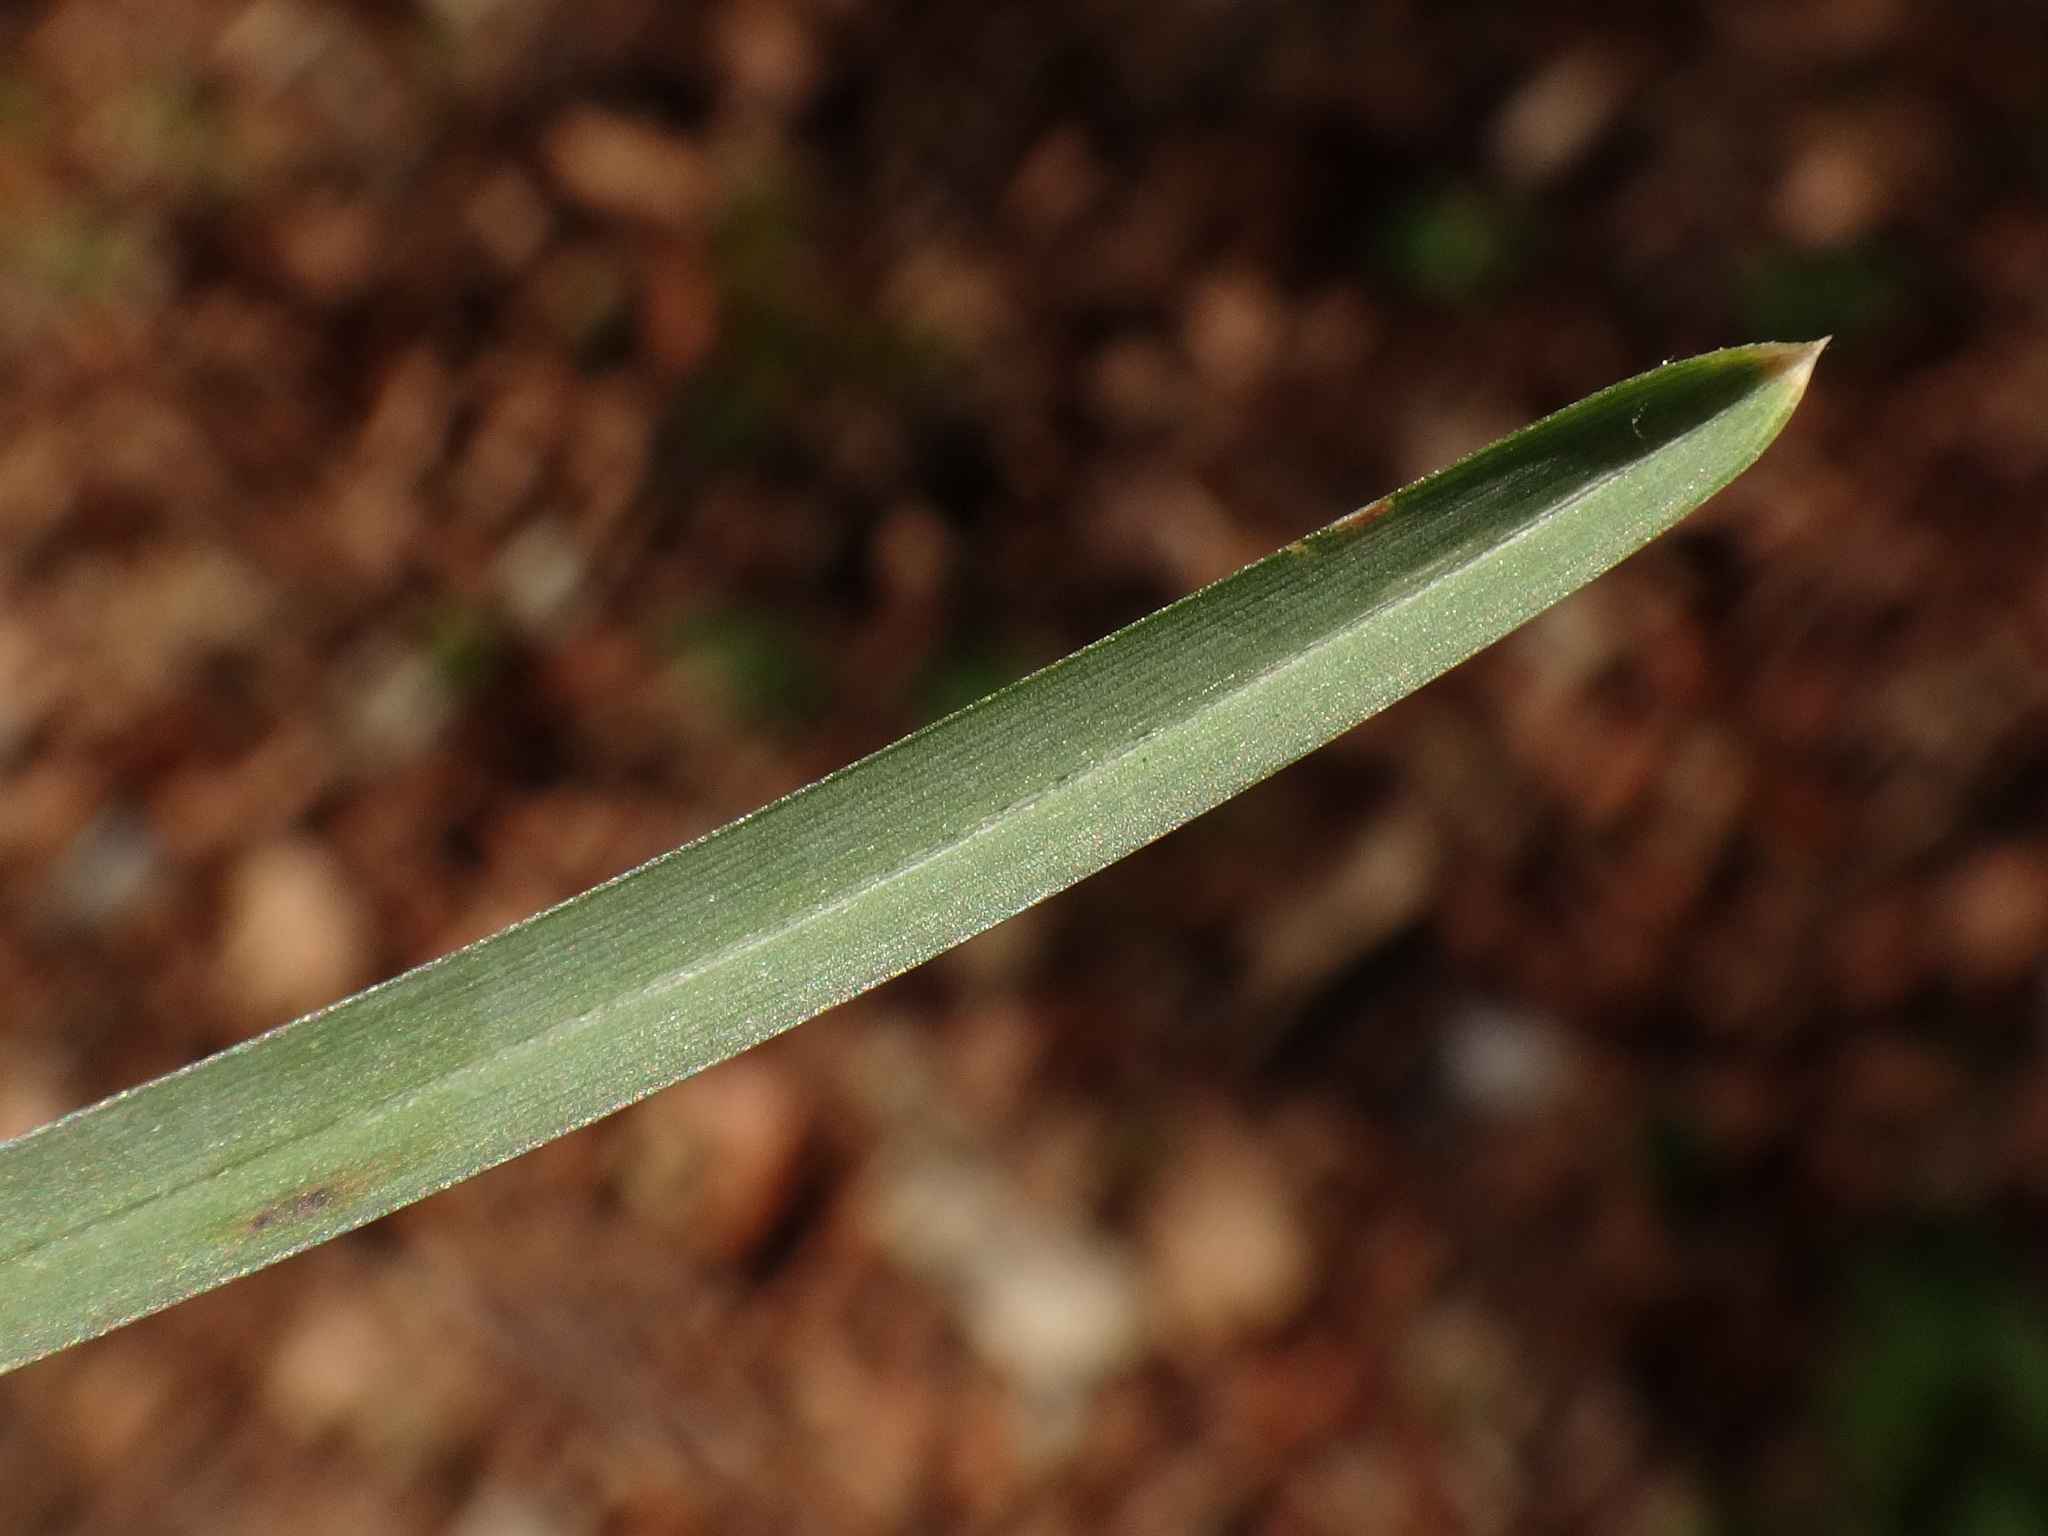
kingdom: Plantae
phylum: Tracheophyta
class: Liliopsida
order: Poales
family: Poaceae
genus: Sesleria
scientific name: Sesleria albicans
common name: Blue moor-grass
